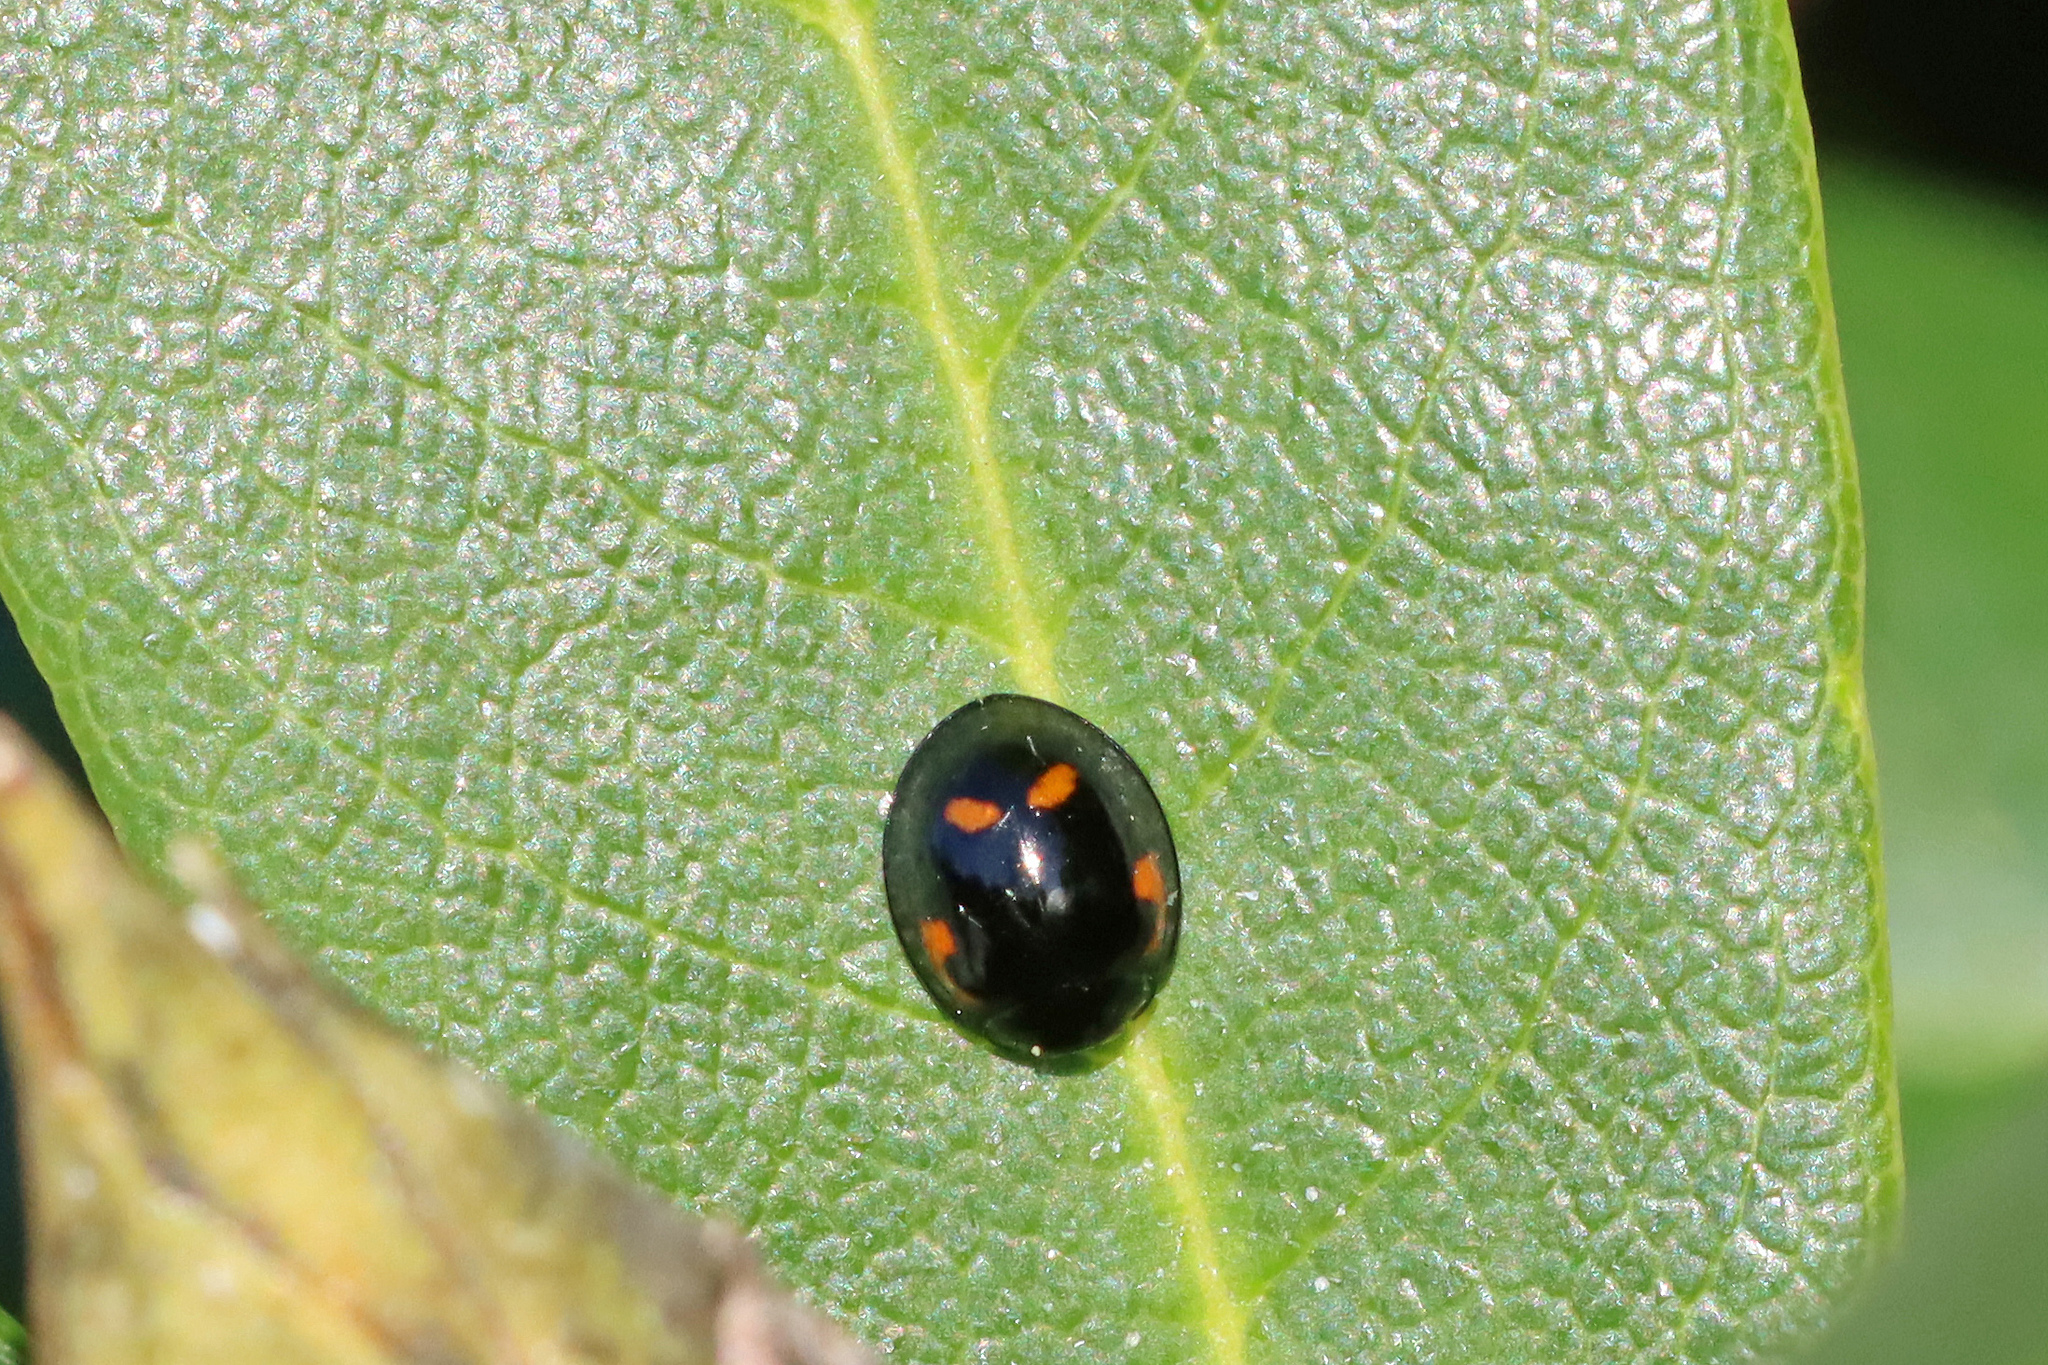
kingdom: Animalia
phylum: Arthropoda
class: Insecta
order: Coleoptera
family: Coccinellidae
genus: Brumus
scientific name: Brumus quadripustulatus
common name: Ladybird beetle
